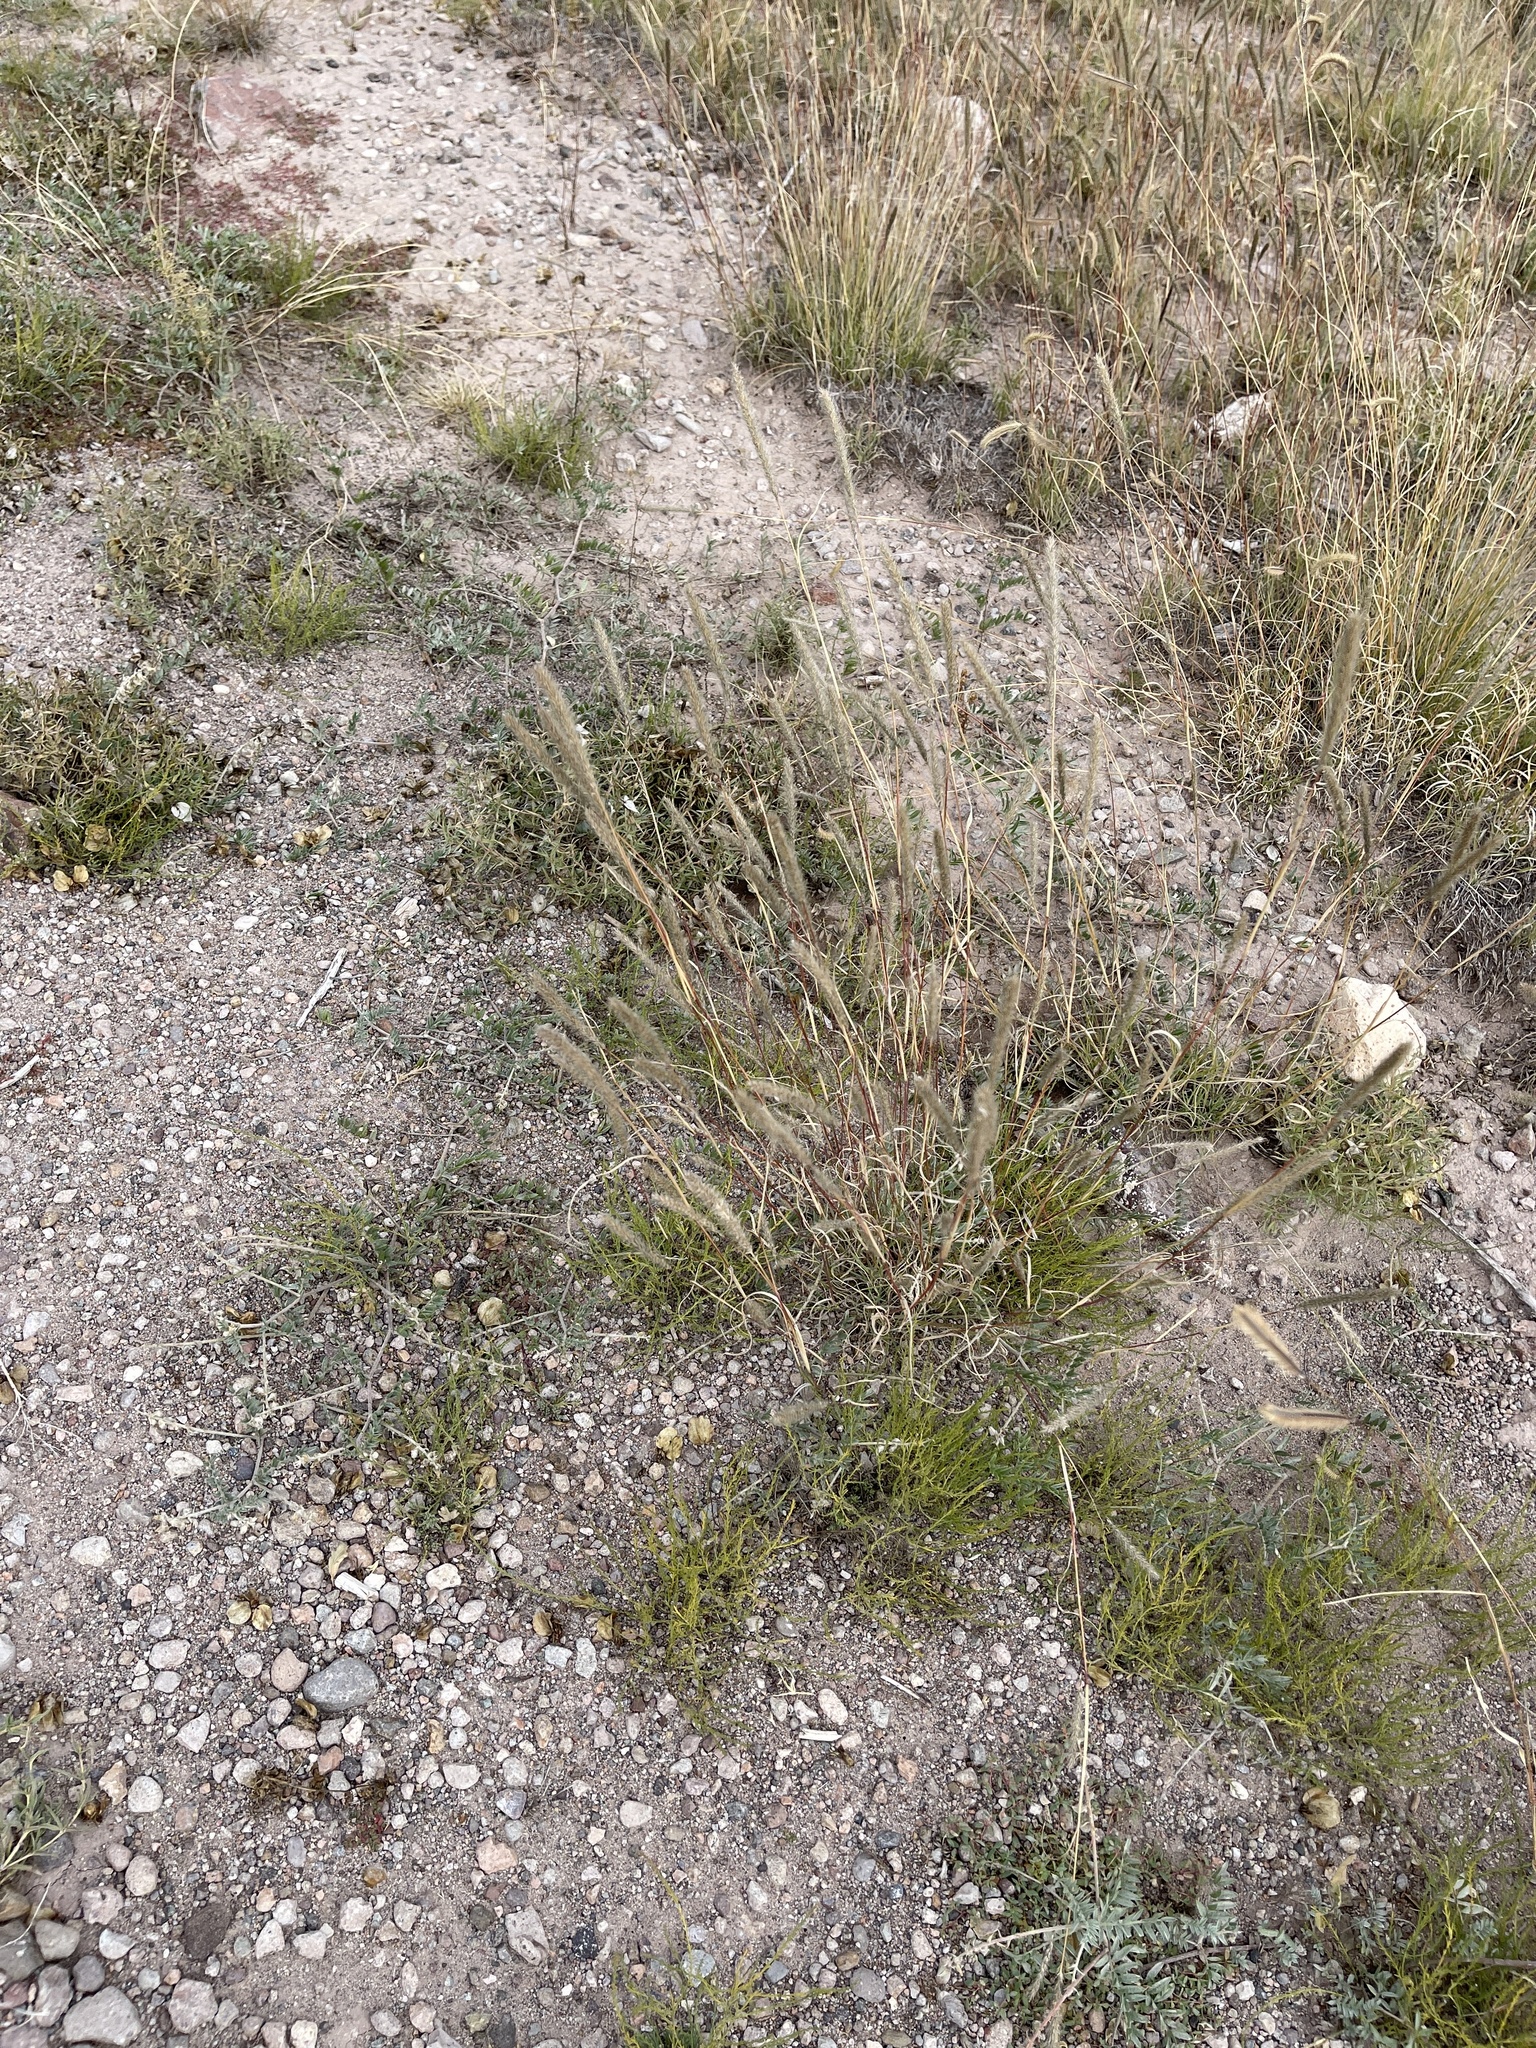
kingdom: Plantae
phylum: Tracheophyta
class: Liliopsida
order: Poales
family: Poaceae
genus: Setaria
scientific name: Setaria leucopila
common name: Plains bristle grass
